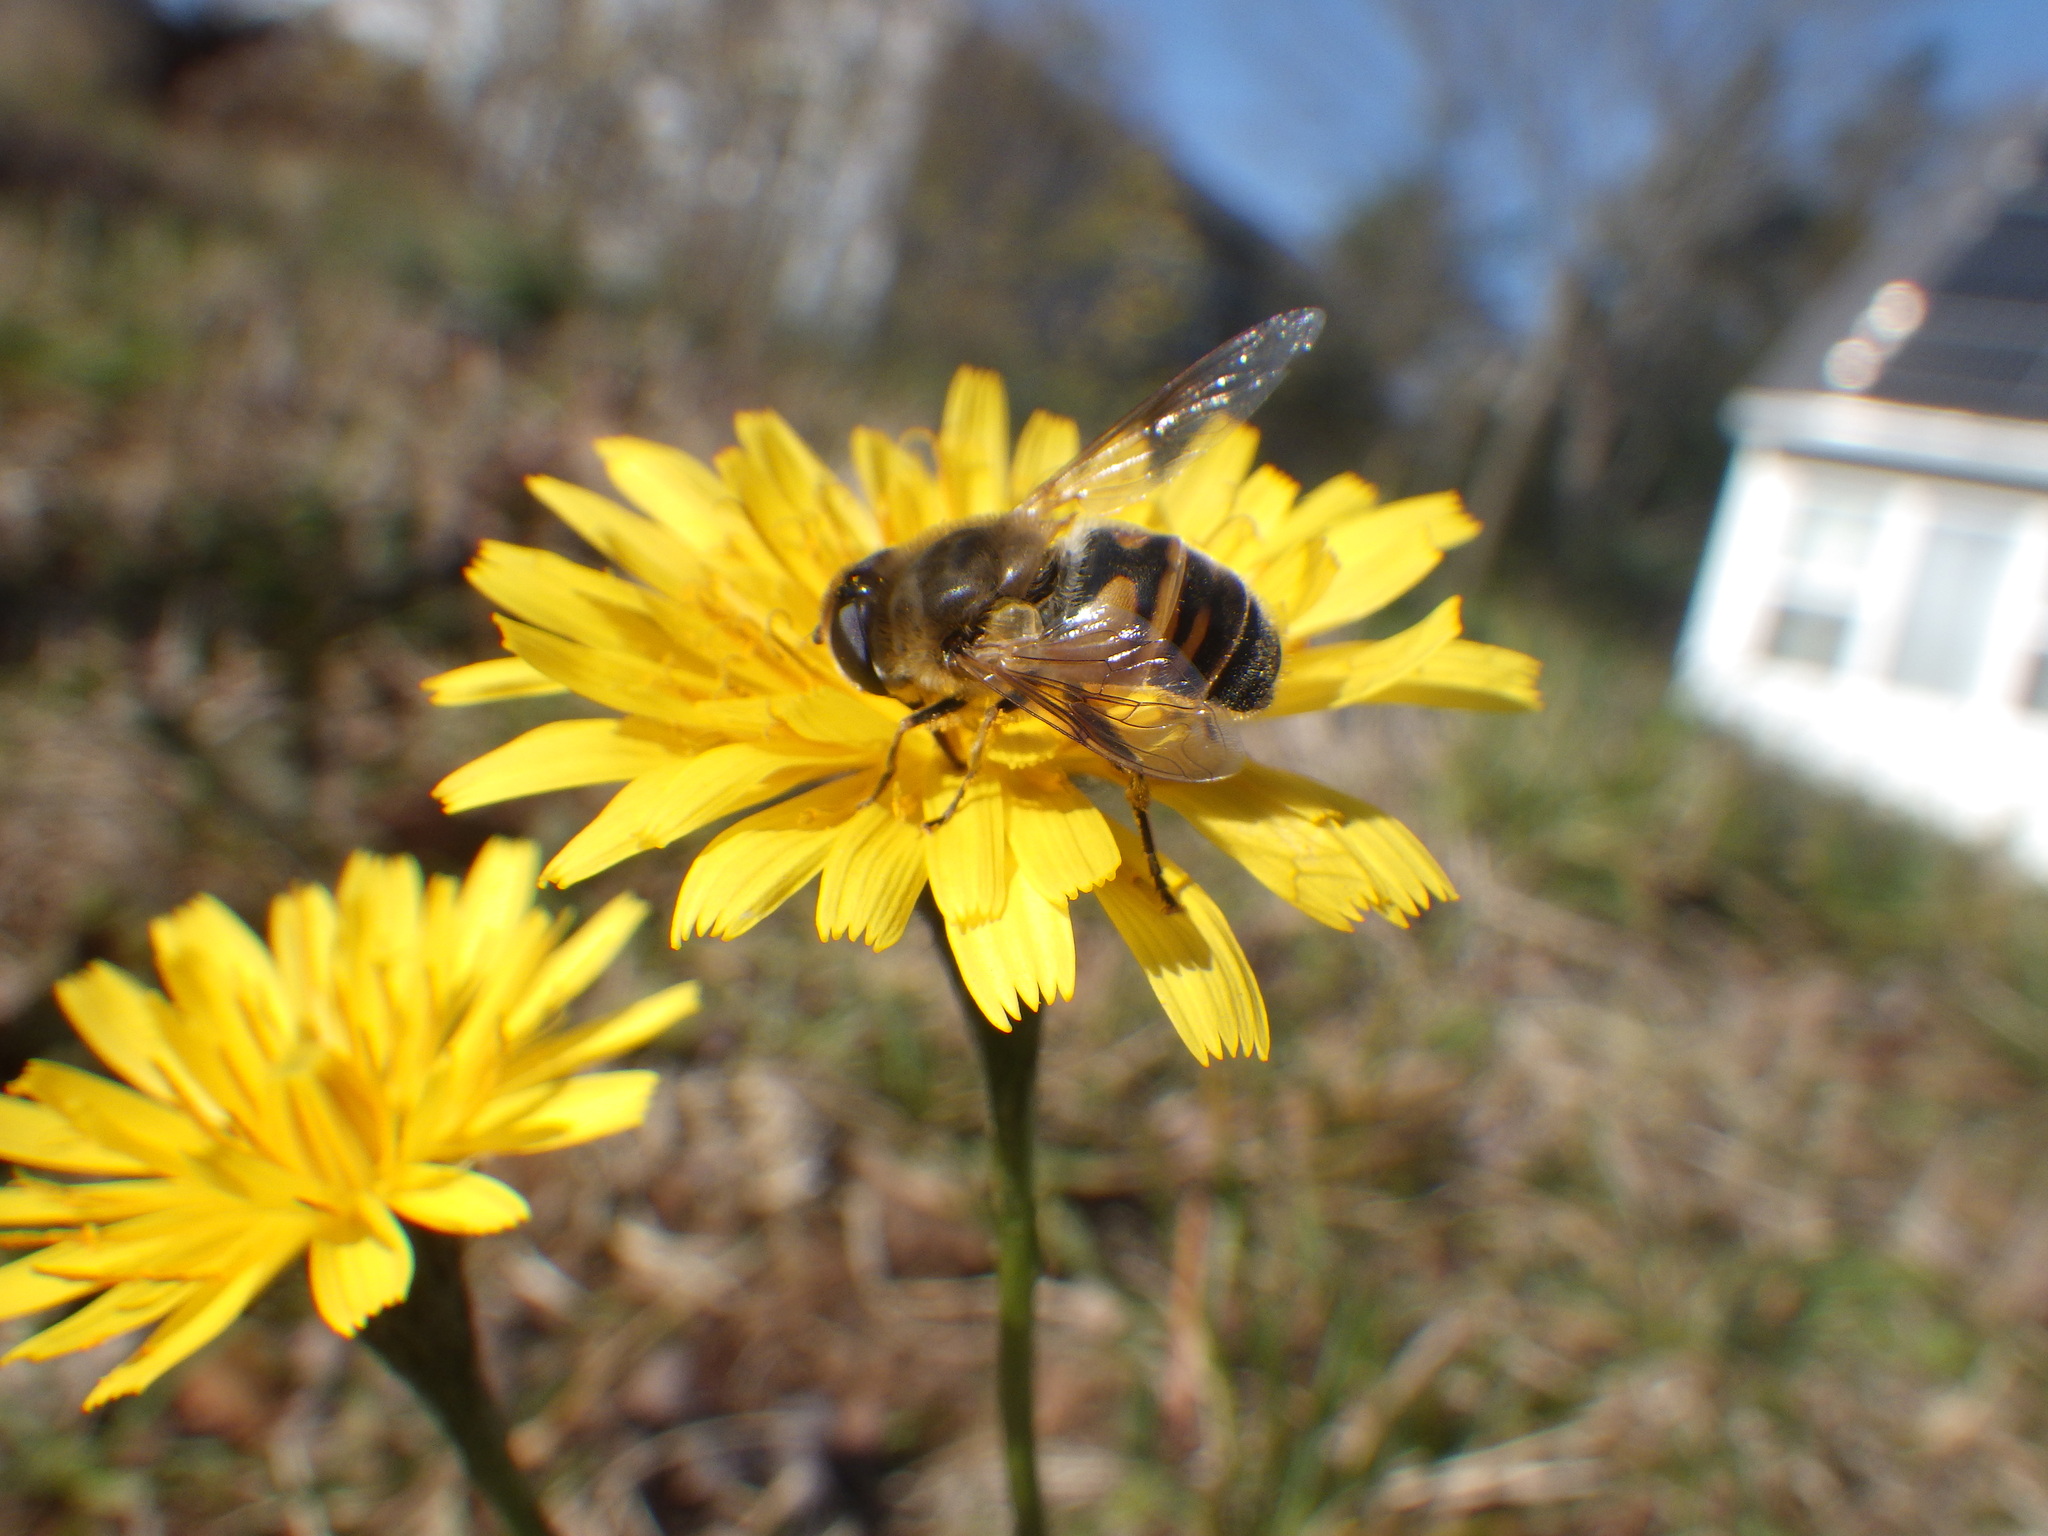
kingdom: Animalia
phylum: Arthropoda
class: Insecta
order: Diptera
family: Syrphidae
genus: Eristalis
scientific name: Eristalis tenax
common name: Drone fly
